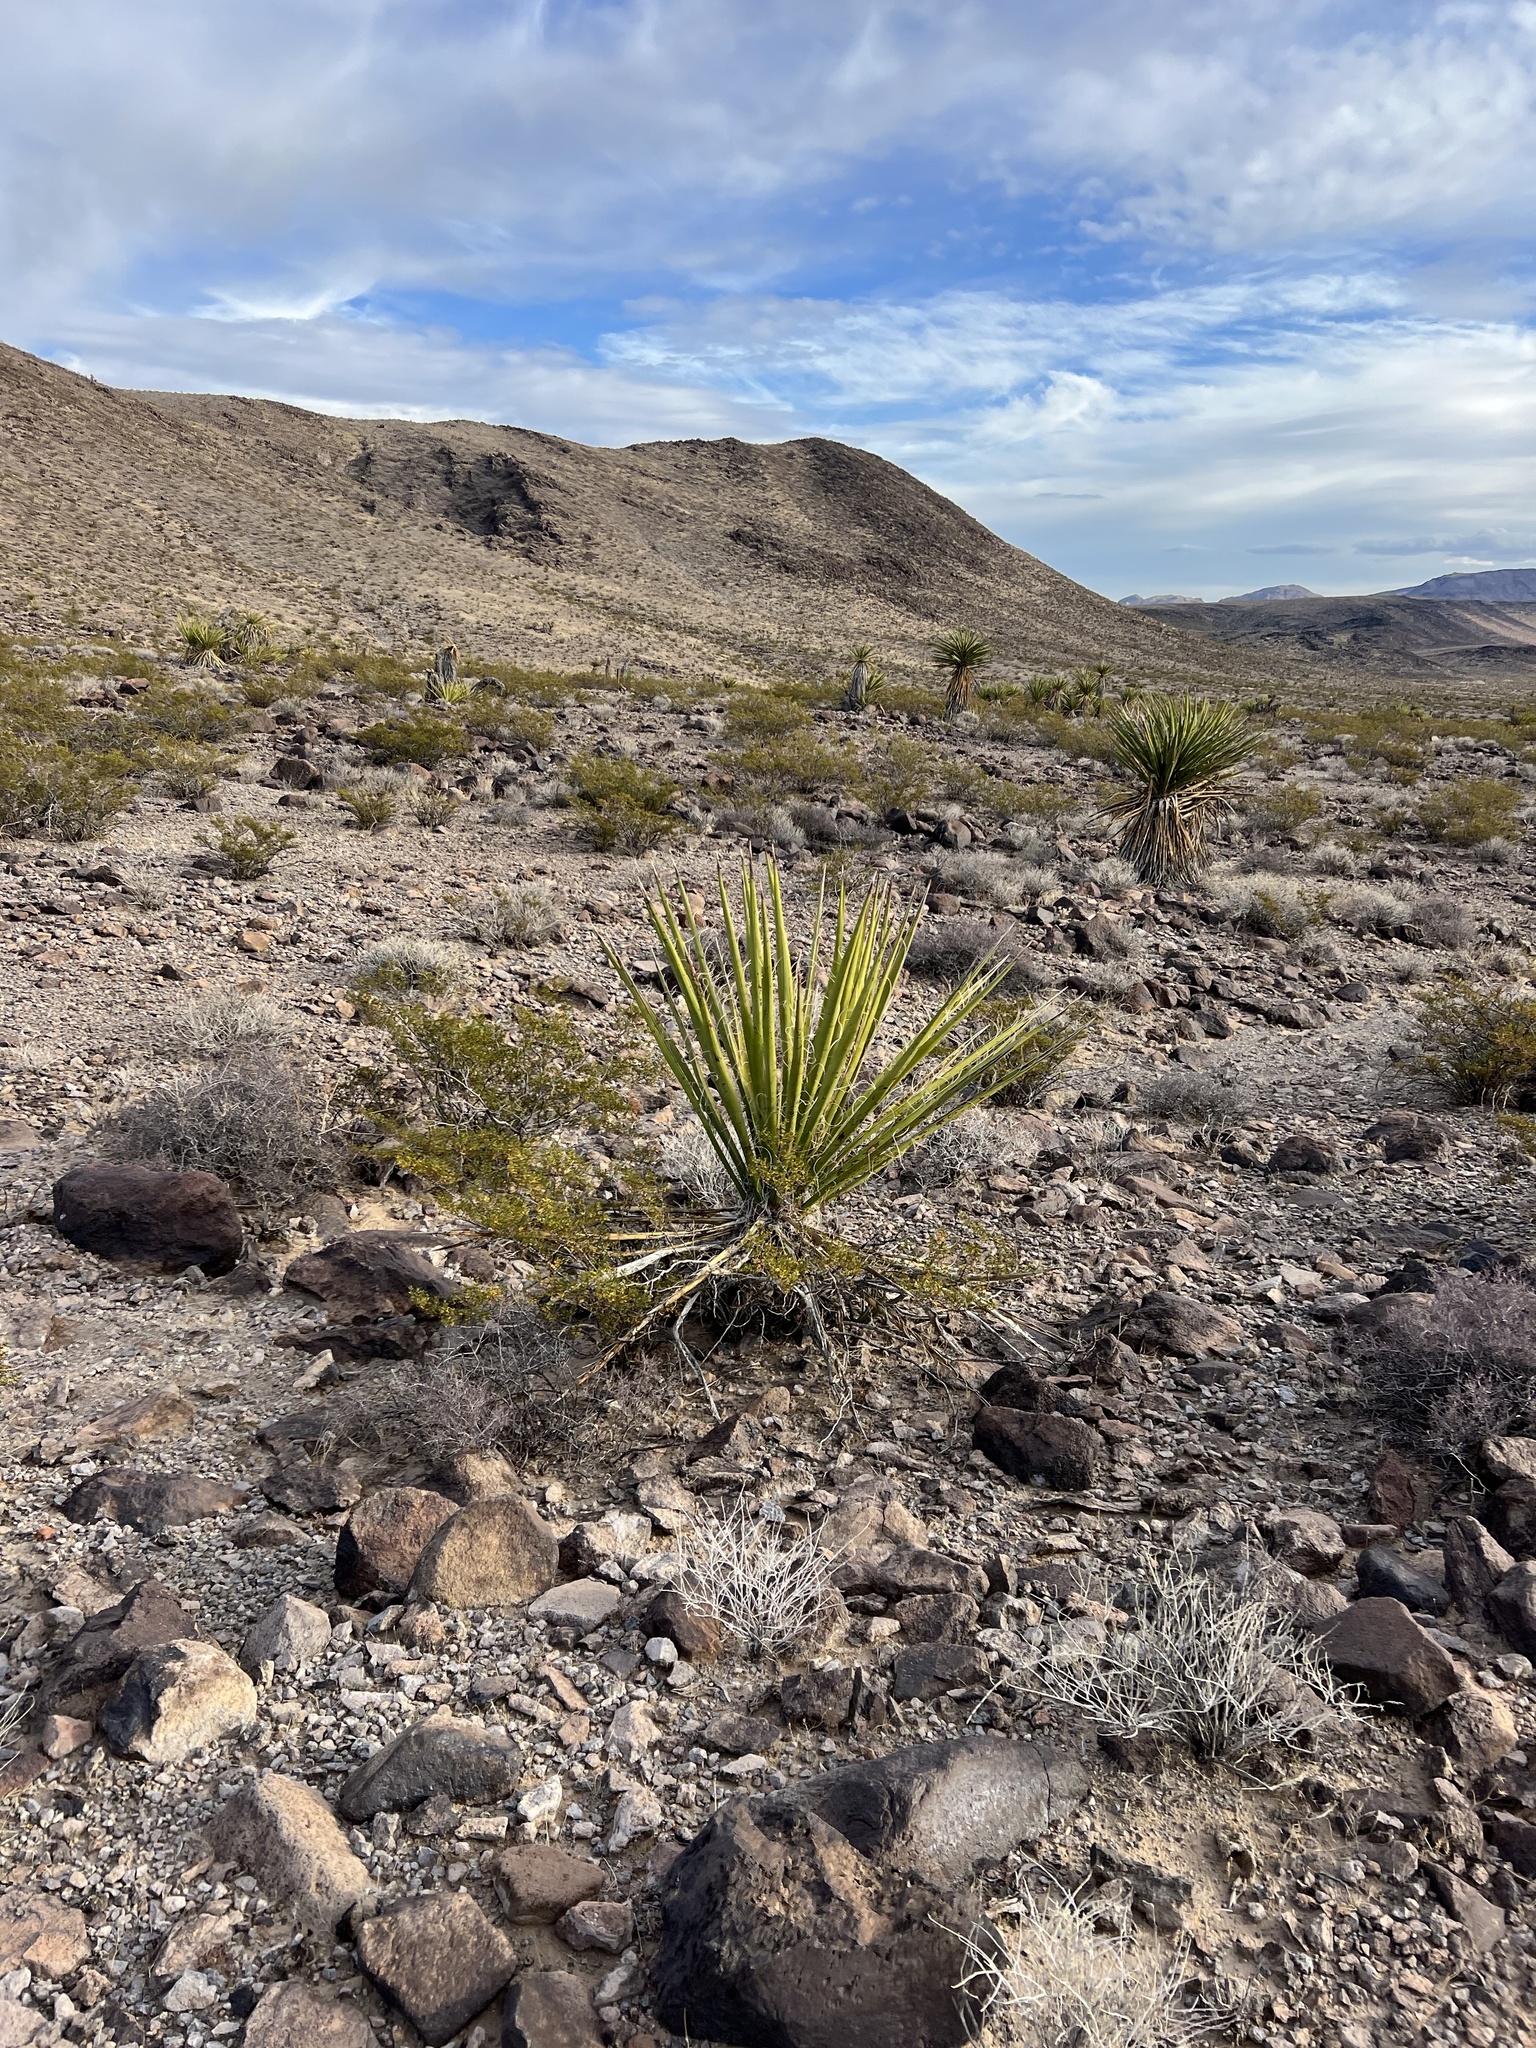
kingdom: Plantae
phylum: Tracheophyta
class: Liliopsida
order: Asparagales
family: Asparagaceae
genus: Yucca
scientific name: Yucca schidigera
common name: Mojave yucca
